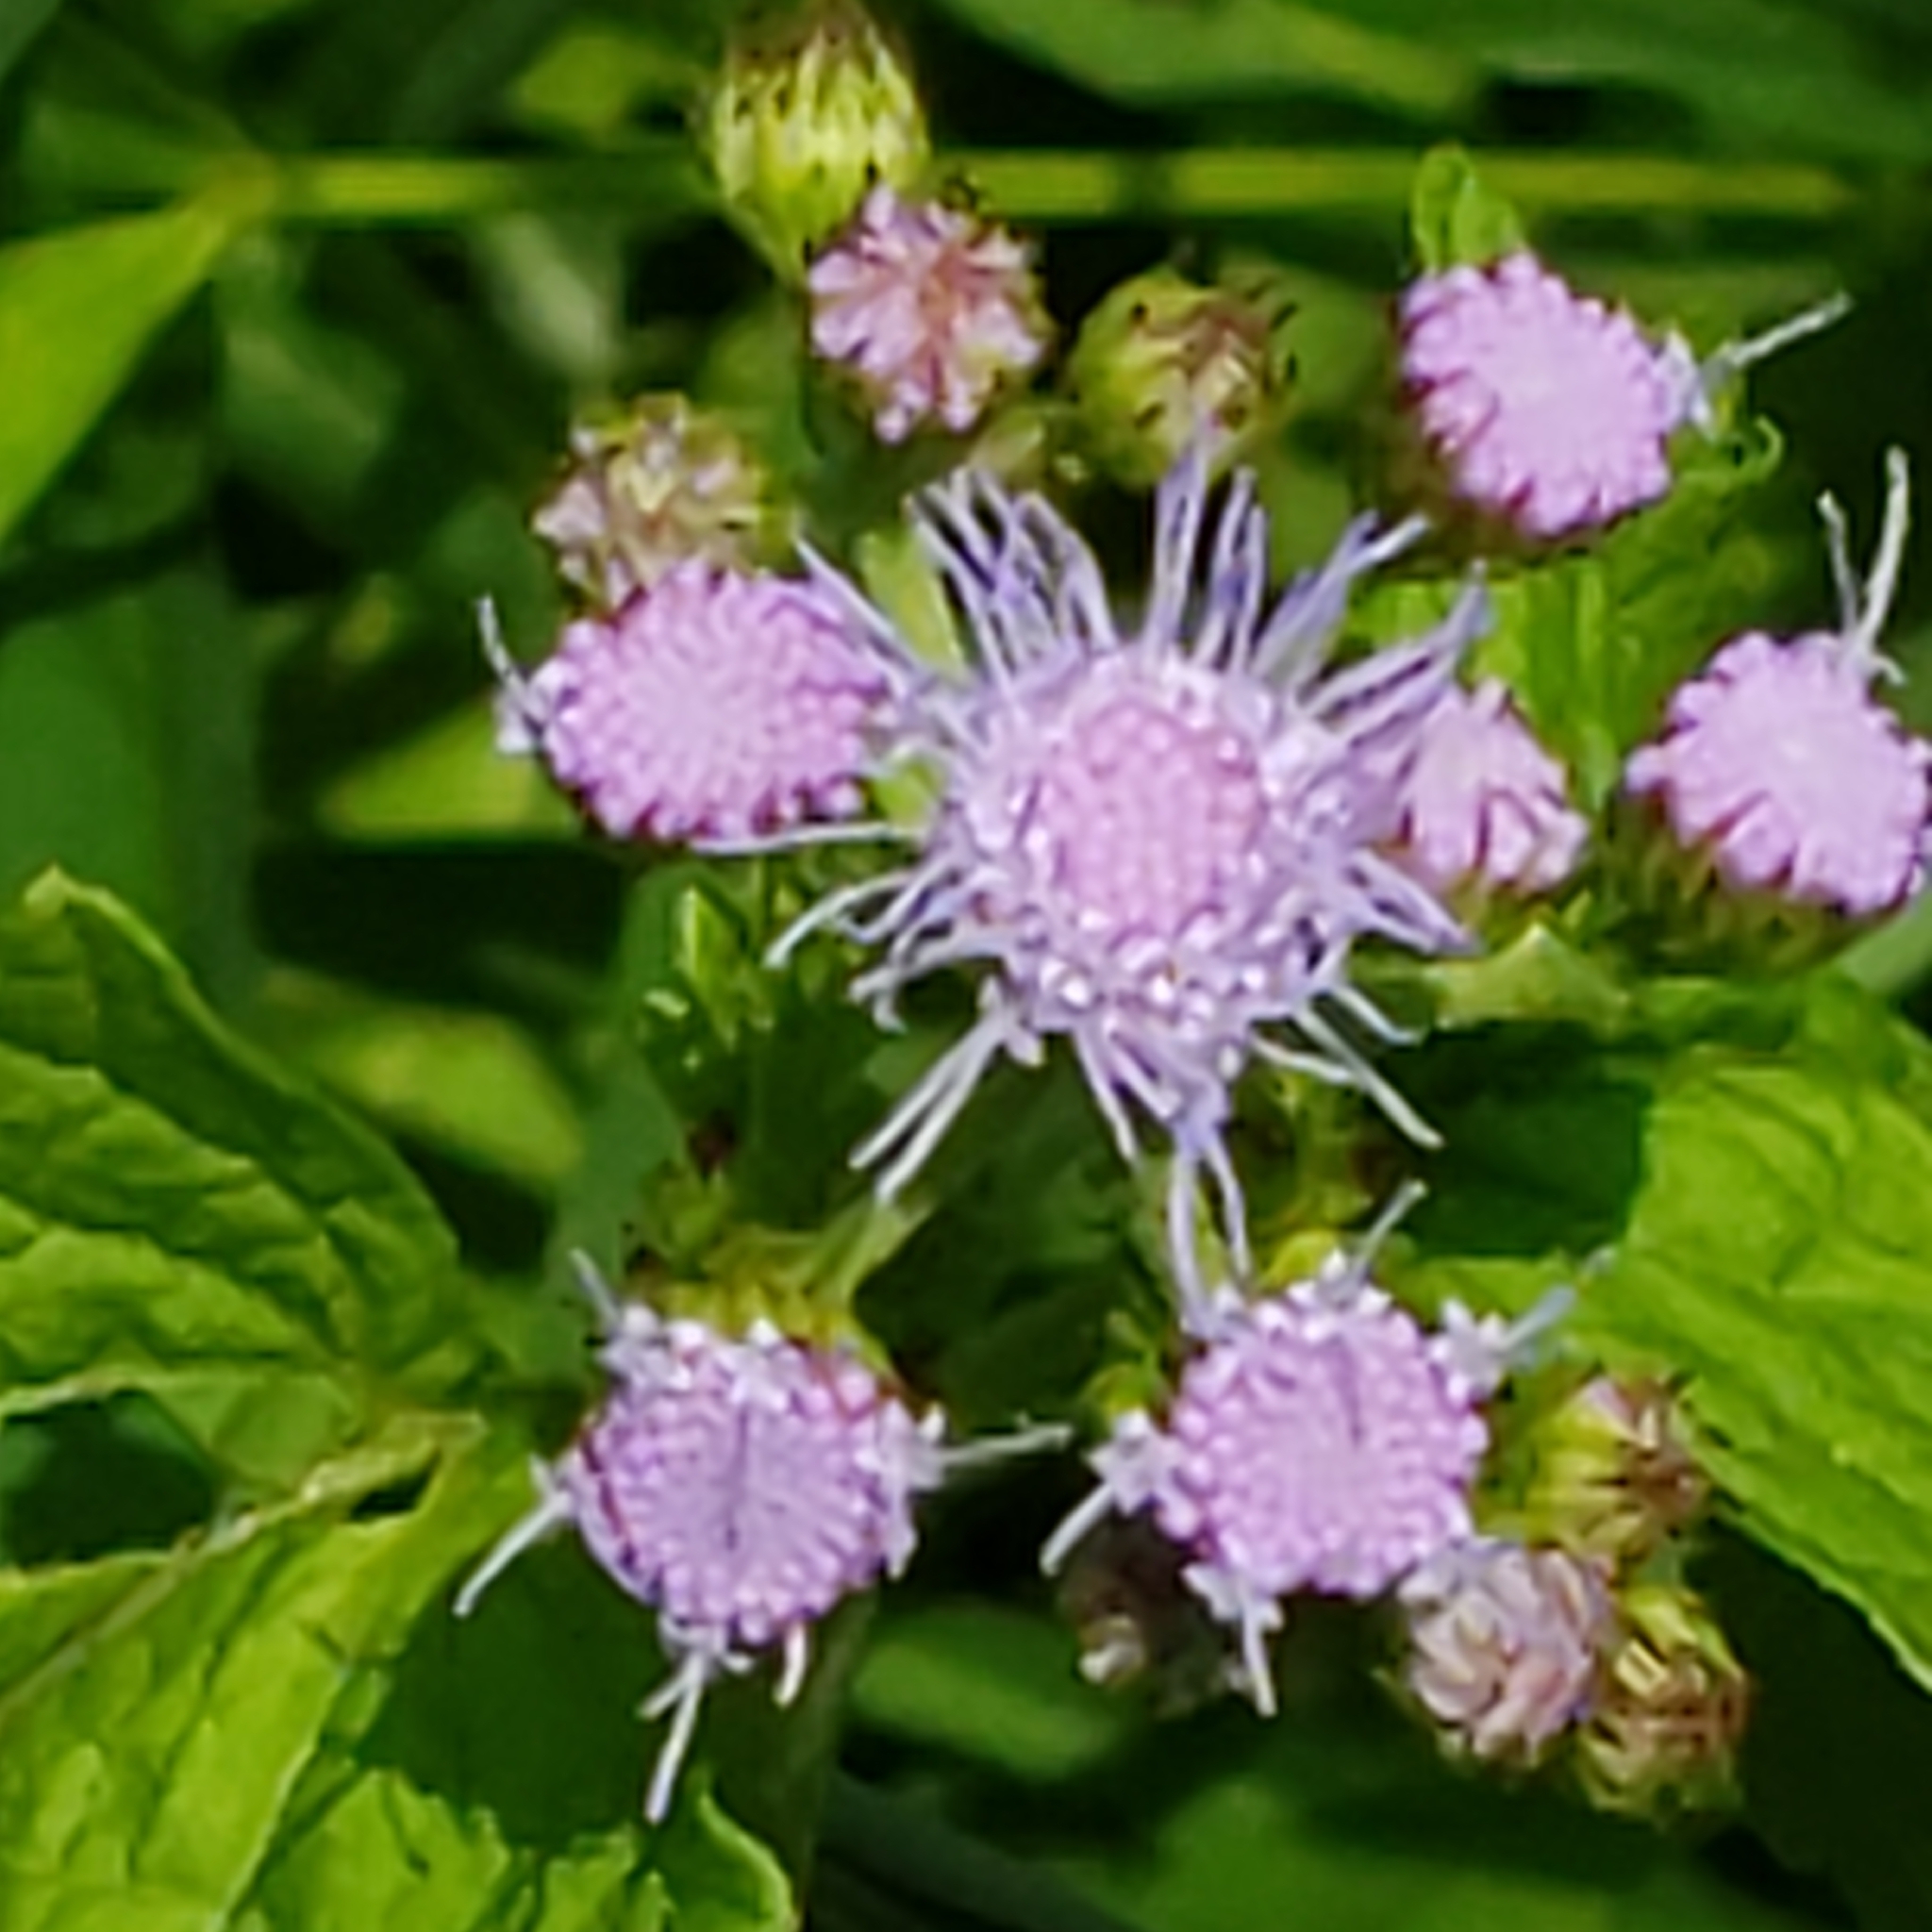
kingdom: Plantae
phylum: Tracheophyta
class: Magnoliopsida
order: Asterales
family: Asteraceae
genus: Conoclinium
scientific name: Conoclinium coelestinum
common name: Blue mistflower
